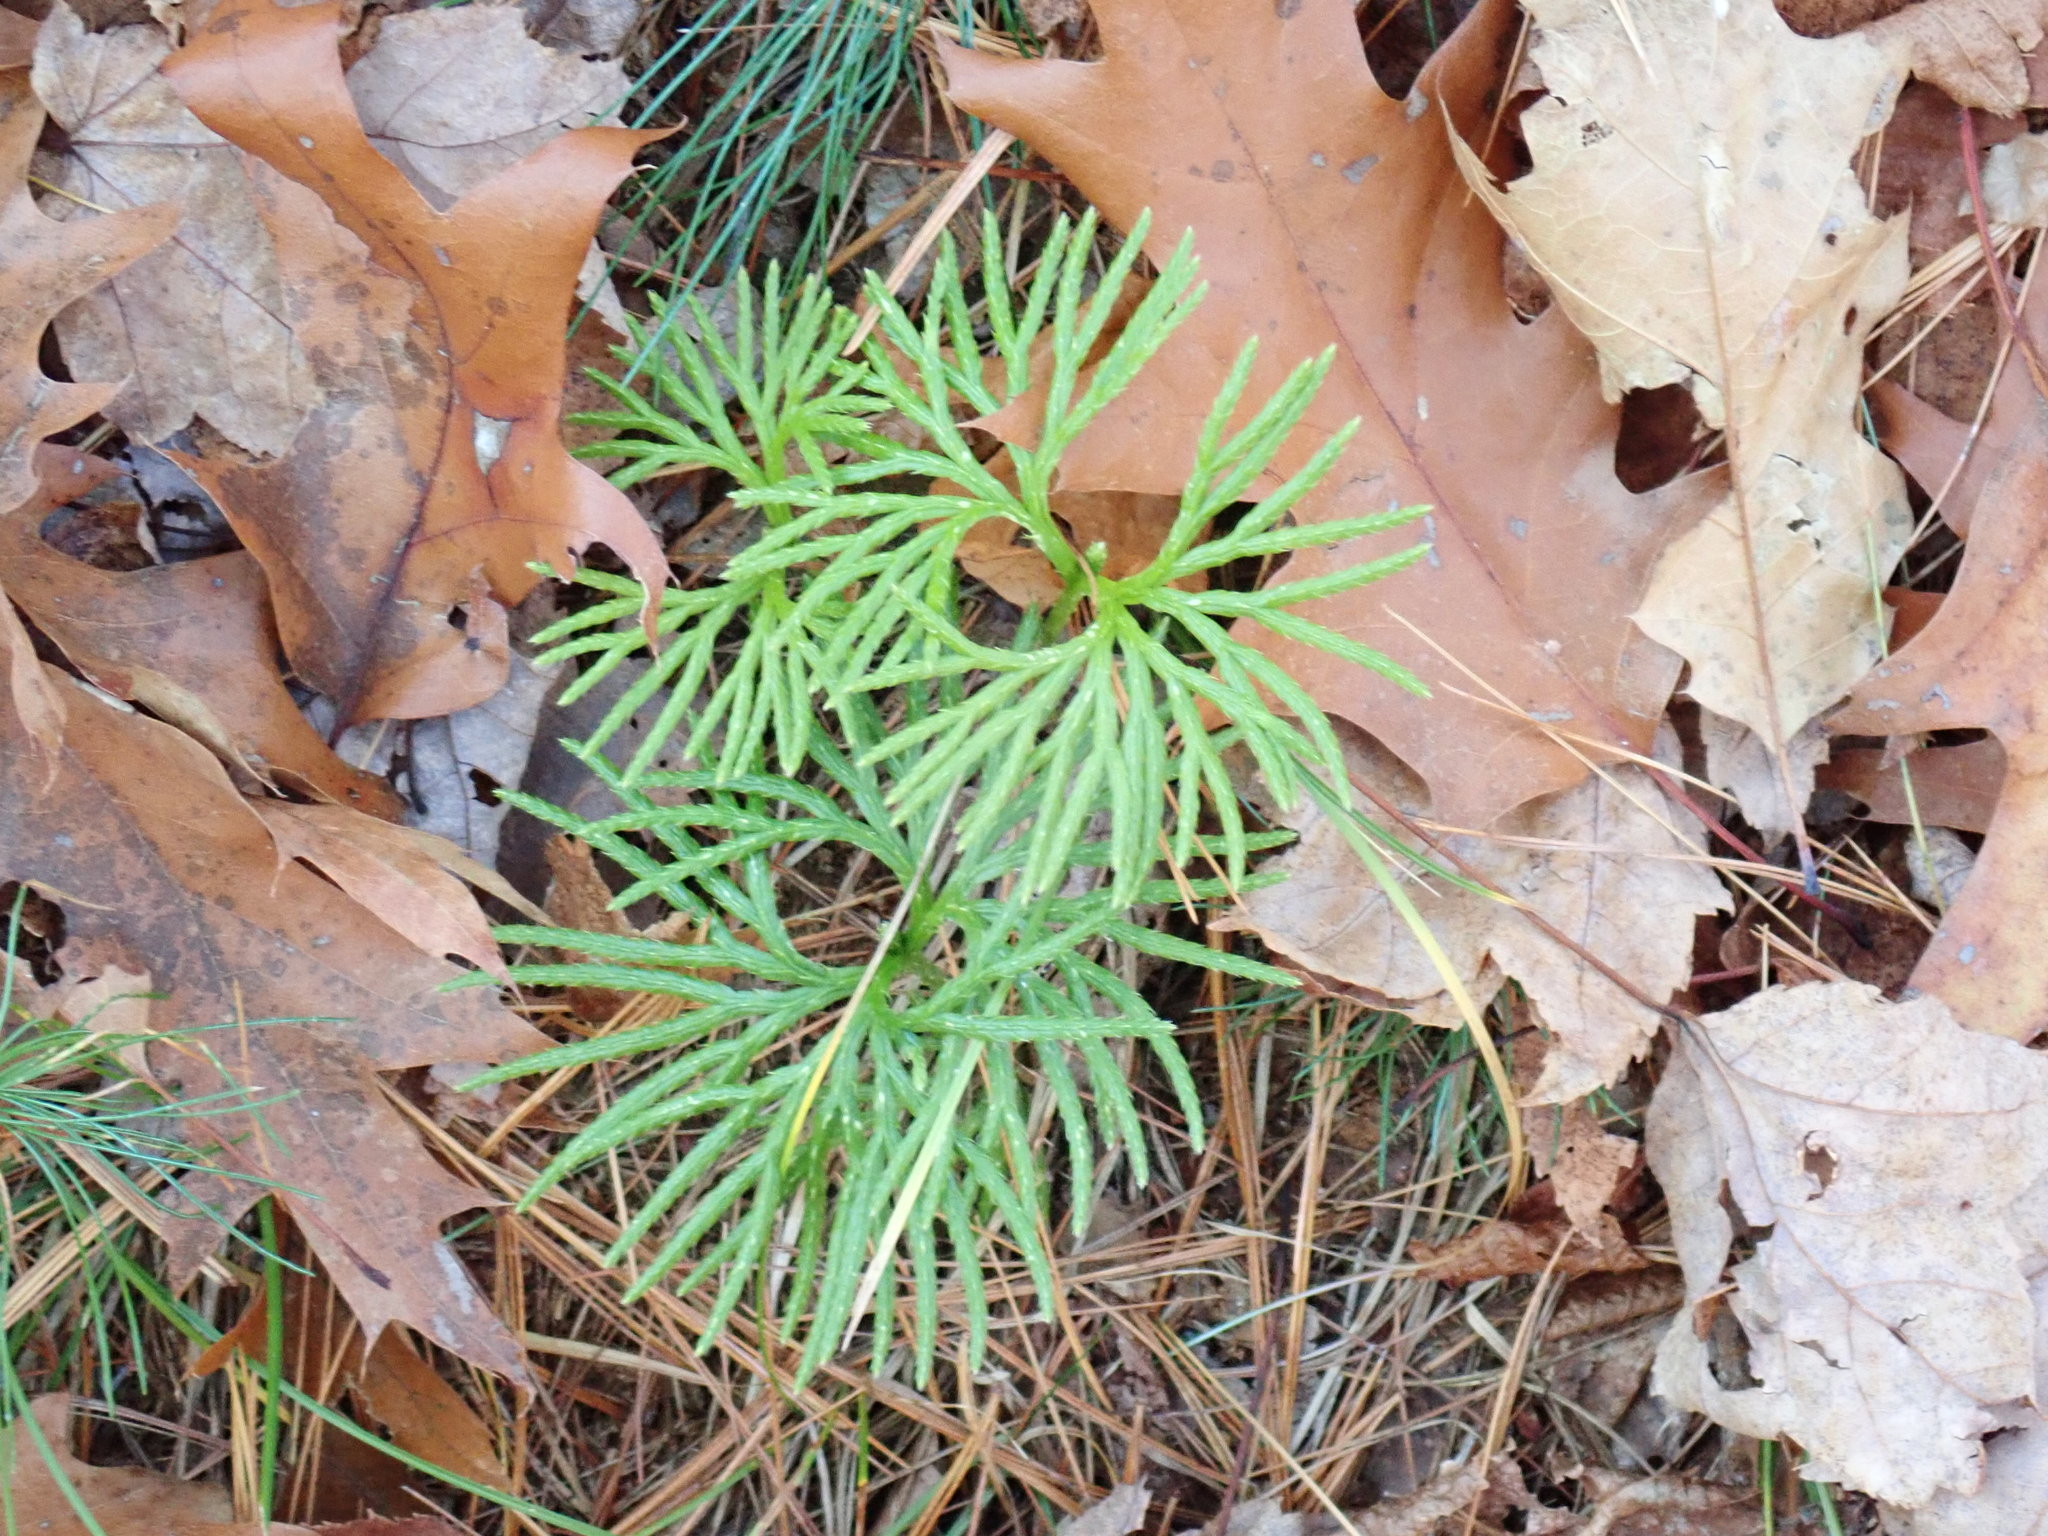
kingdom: Plantae
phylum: Tracheophyta
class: Lycopodiopsida
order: Lycopodiales
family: Lycopodiaceae
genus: Diphasiastrum
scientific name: Diphasiastrum digitatum
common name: Southern running-pine
